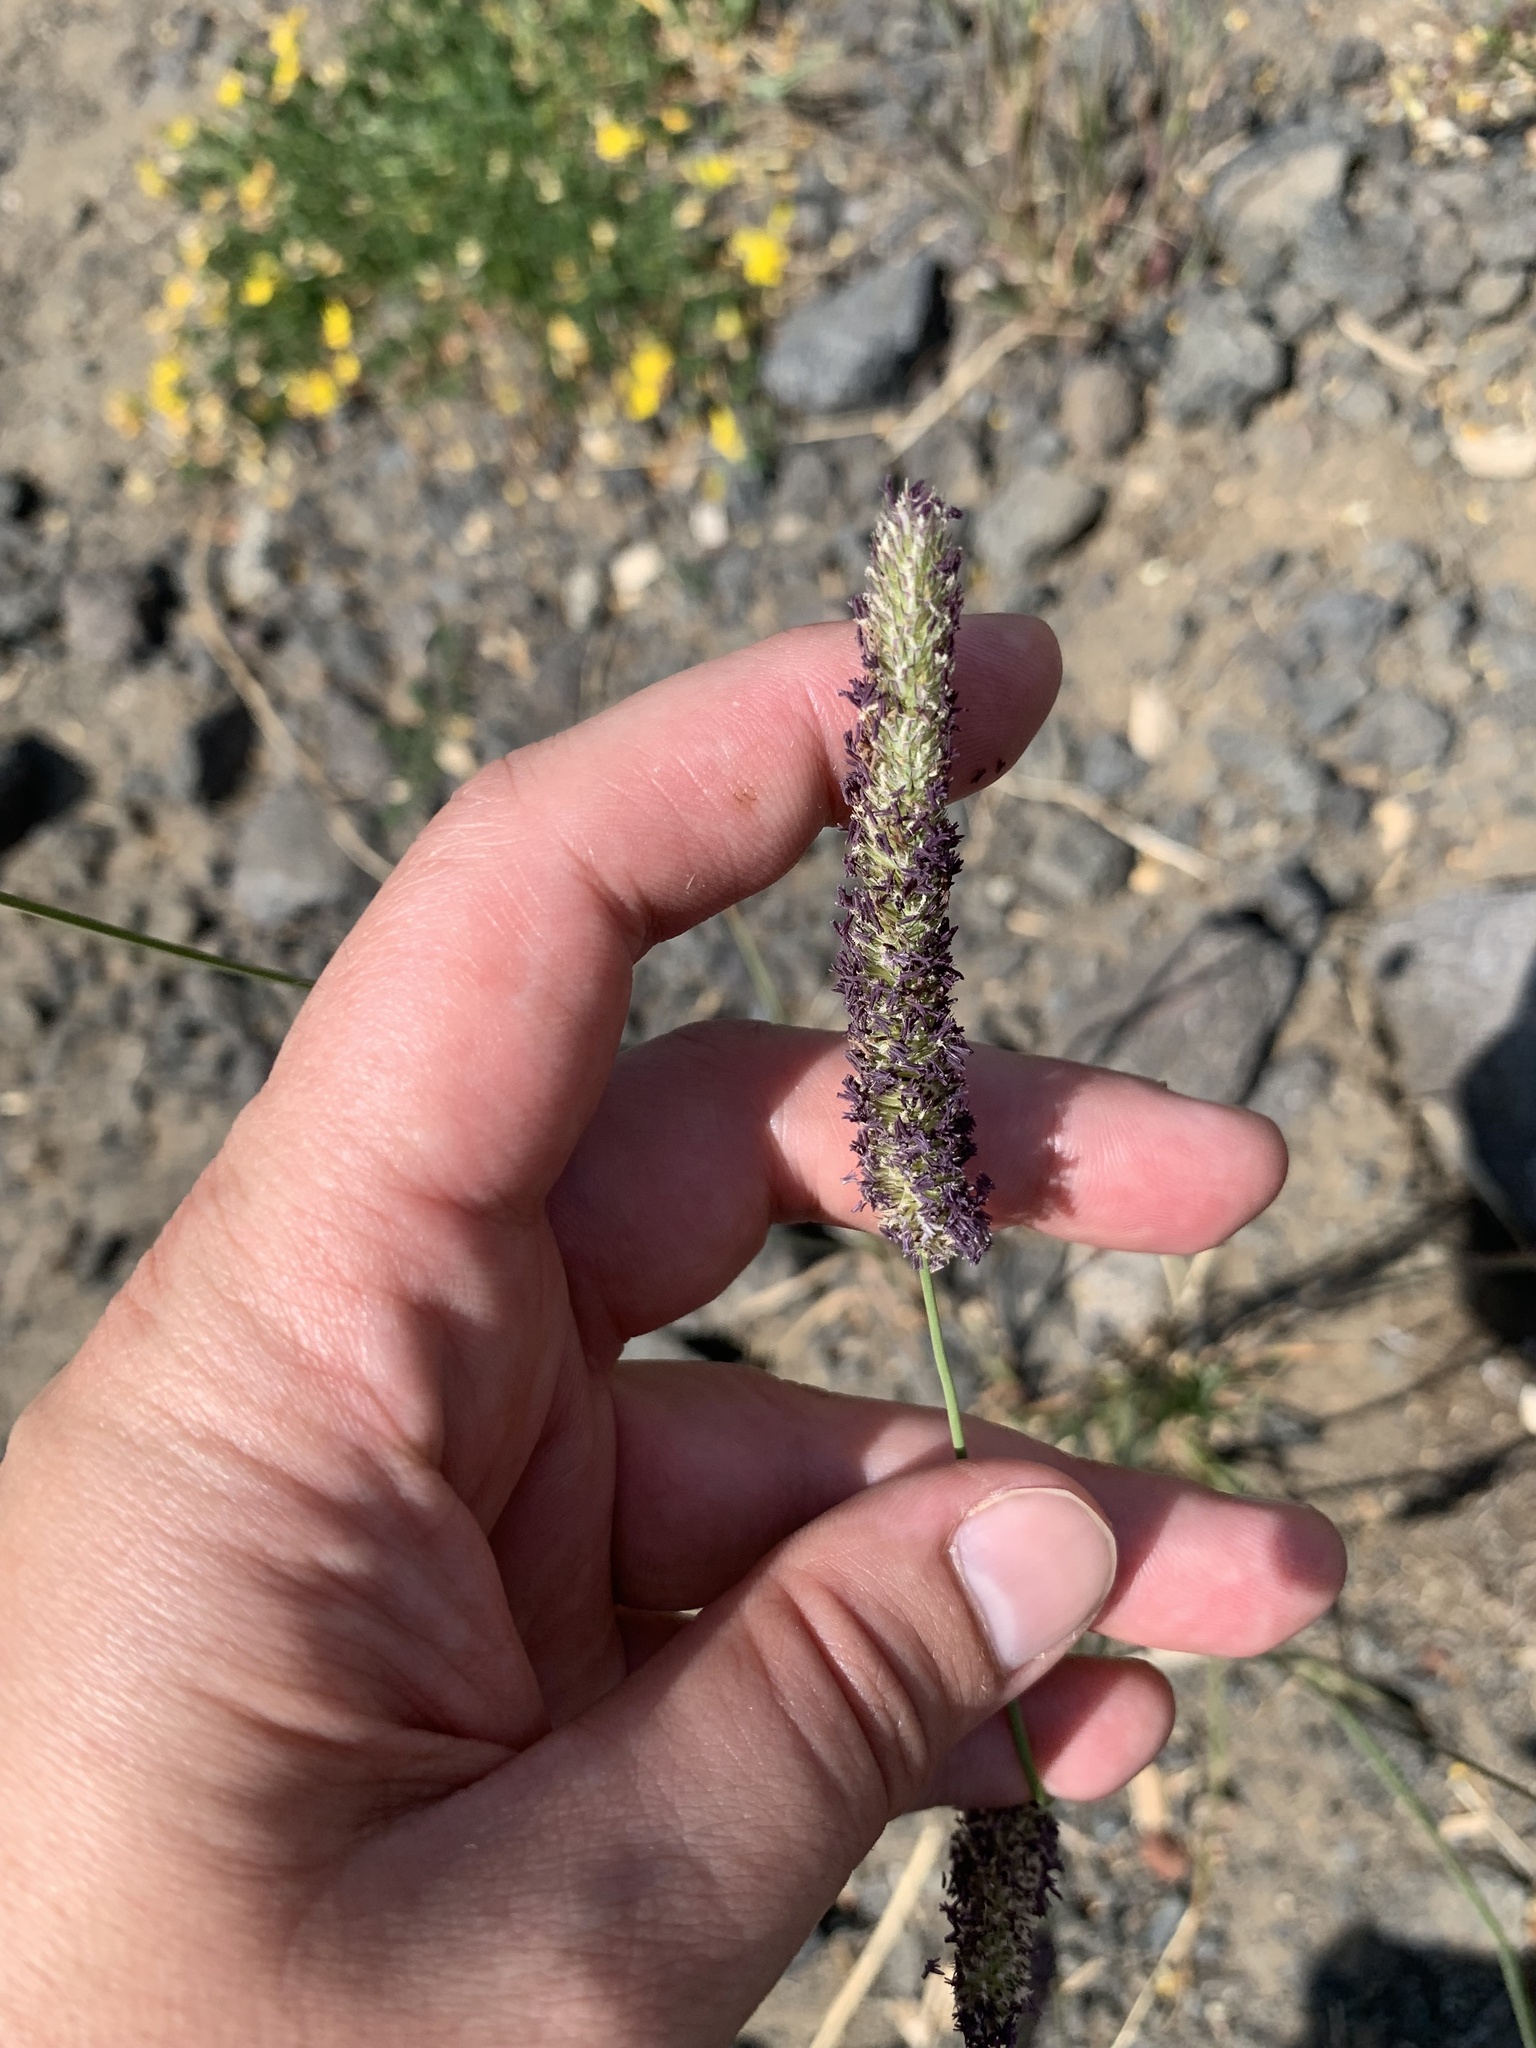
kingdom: Plantae
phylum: Tracheophyta
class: Liliopsida
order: Poales
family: Poaceae
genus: Phleum
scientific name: Phleum pratense
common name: Timothy grass
